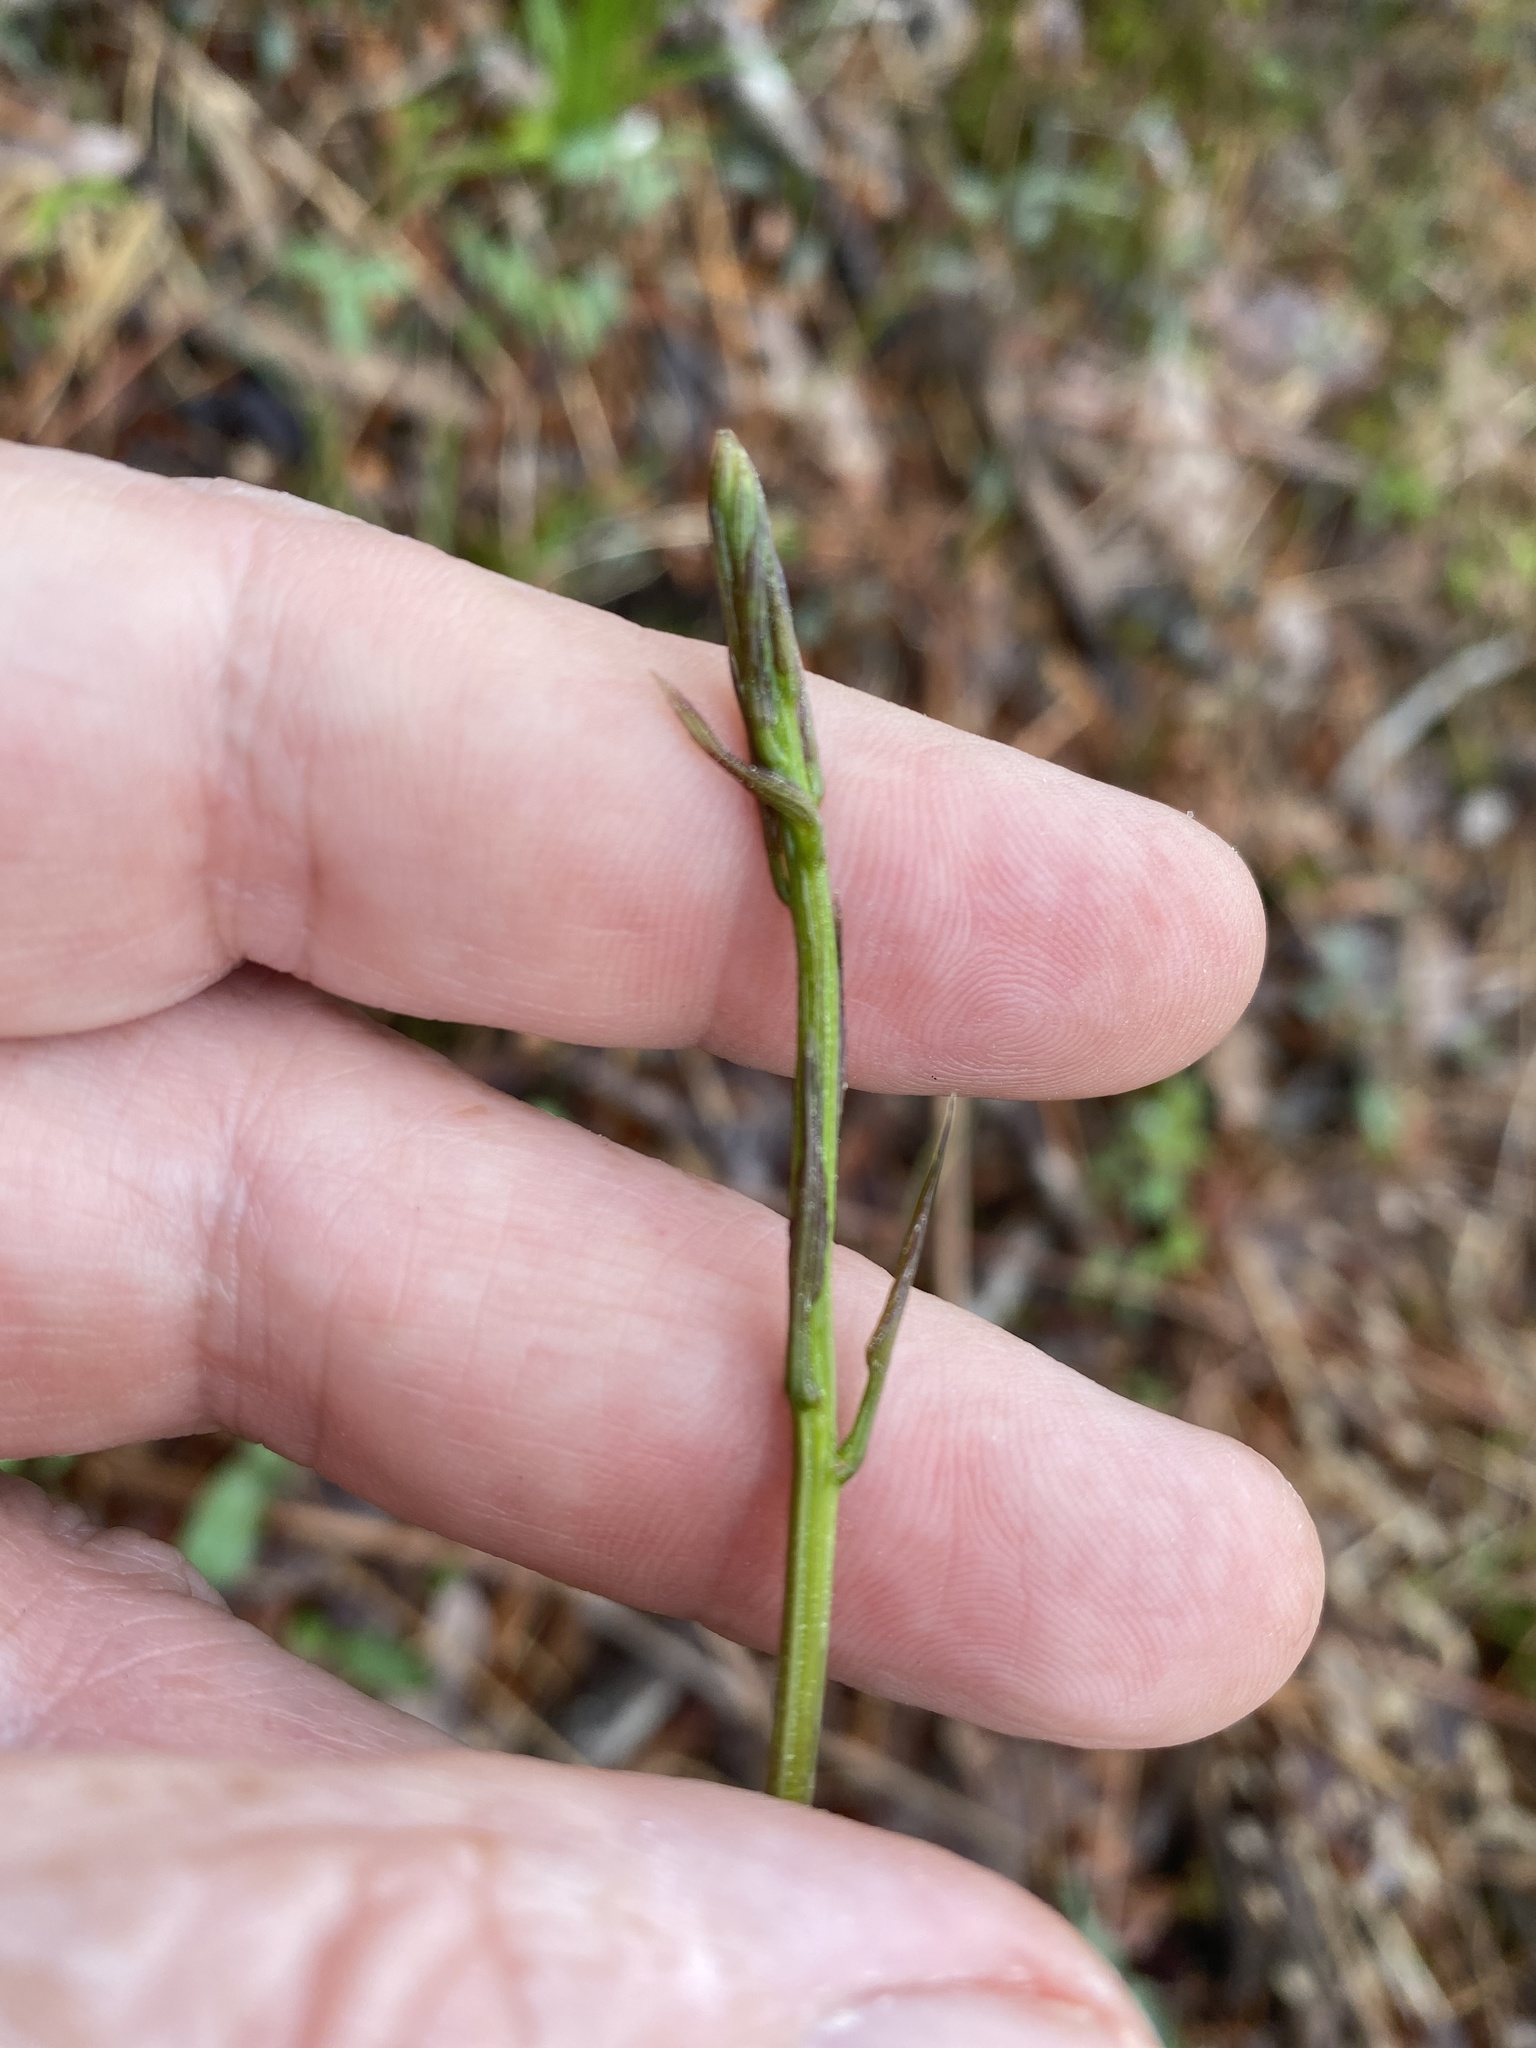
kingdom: Plantae
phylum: Tracheophyta
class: Liliopsida
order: Dioscoreales
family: Dioscoreaceae
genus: Dioscorea
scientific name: Dioscorea villosa
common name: Wild yam
